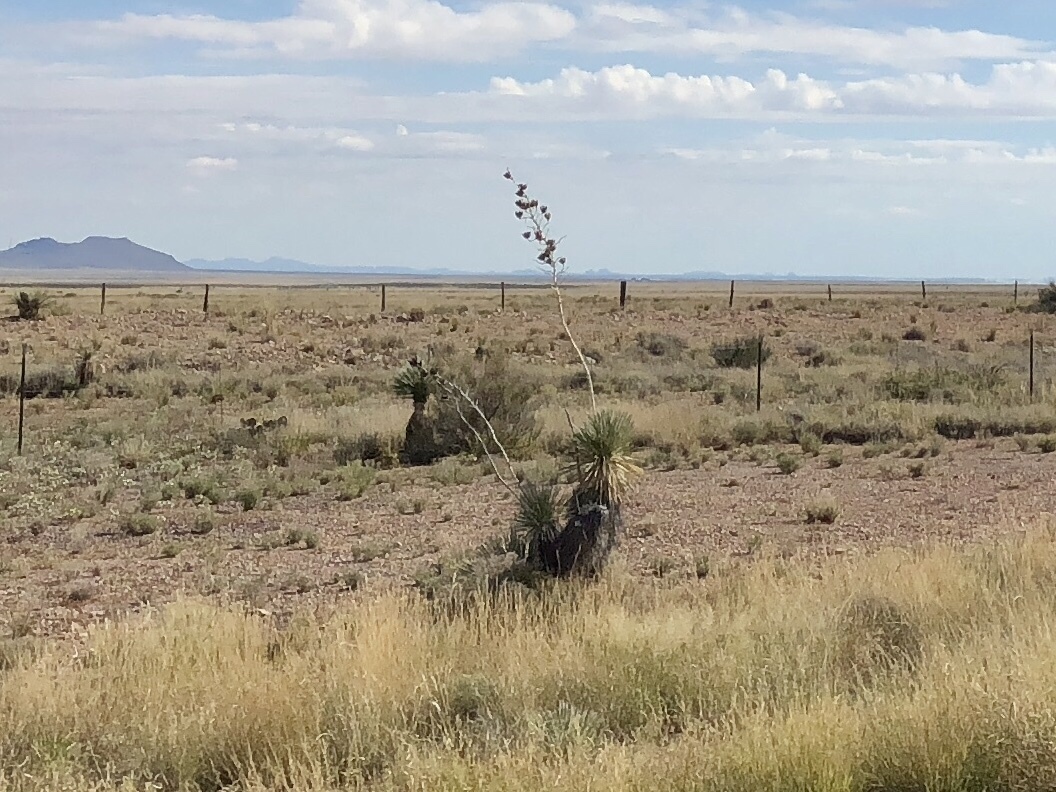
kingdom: Plantae
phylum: Tracheophyta
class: Liliopsida
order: Asparagales
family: Asparagaceae
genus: Yucca
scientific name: Yucca elata
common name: Palmella
